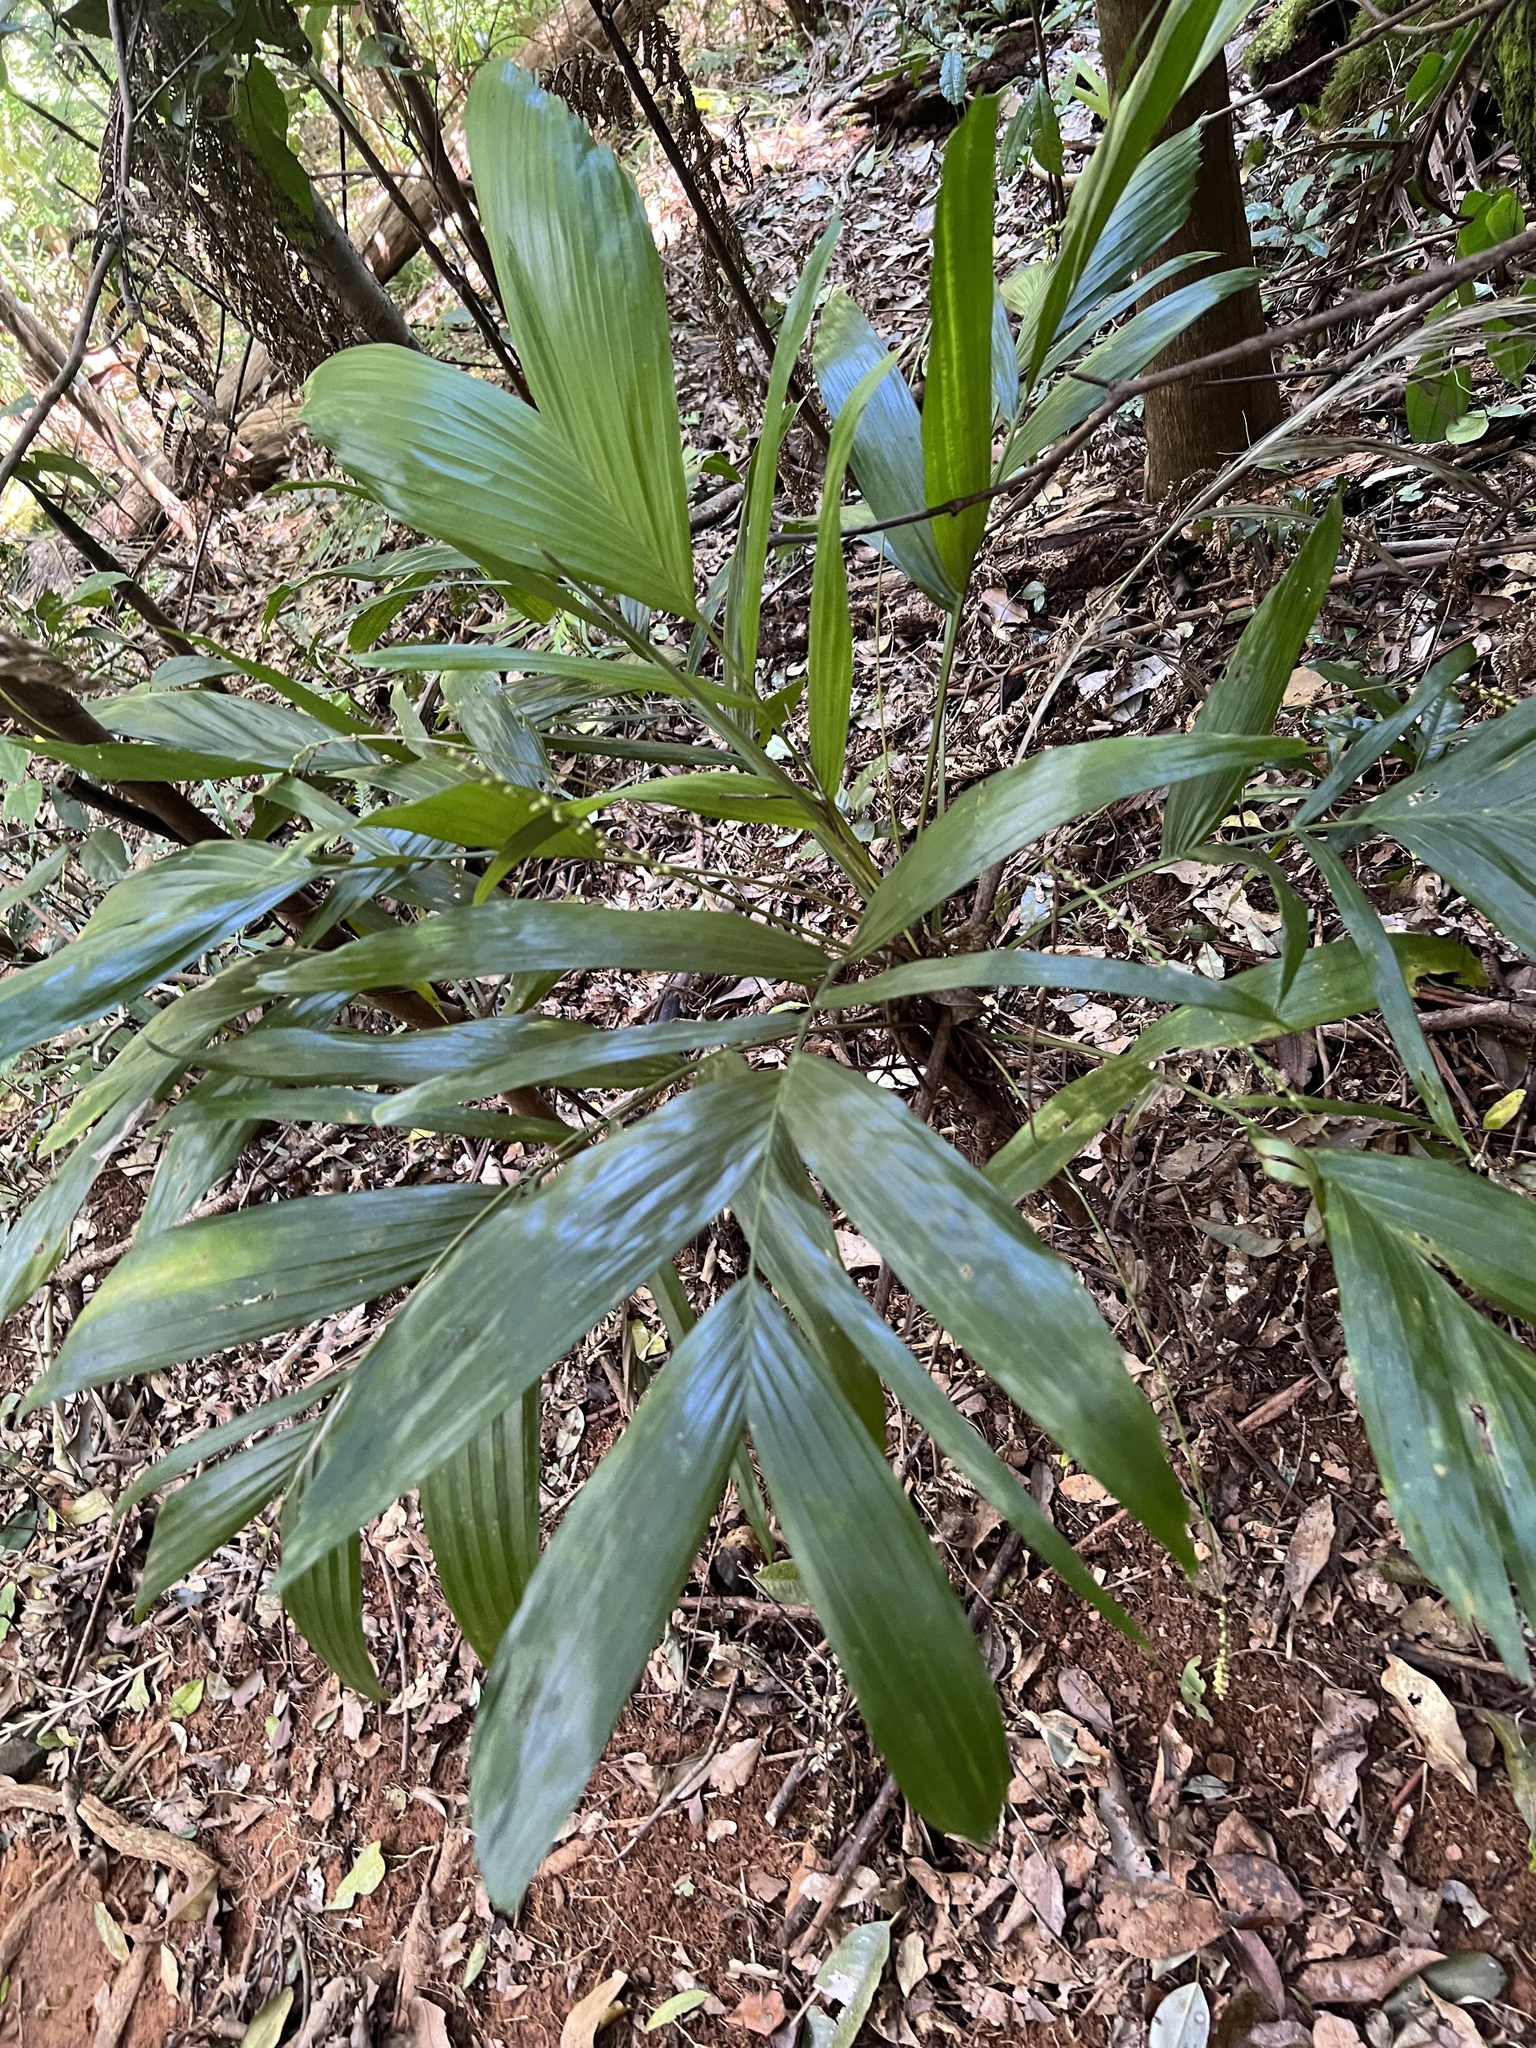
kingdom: Plantae
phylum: Tracheophyta
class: Liliopsida
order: Arecales
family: Arecaceae
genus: Linospadix
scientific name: Linospadix monostachyus
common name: Walking-stick palm
